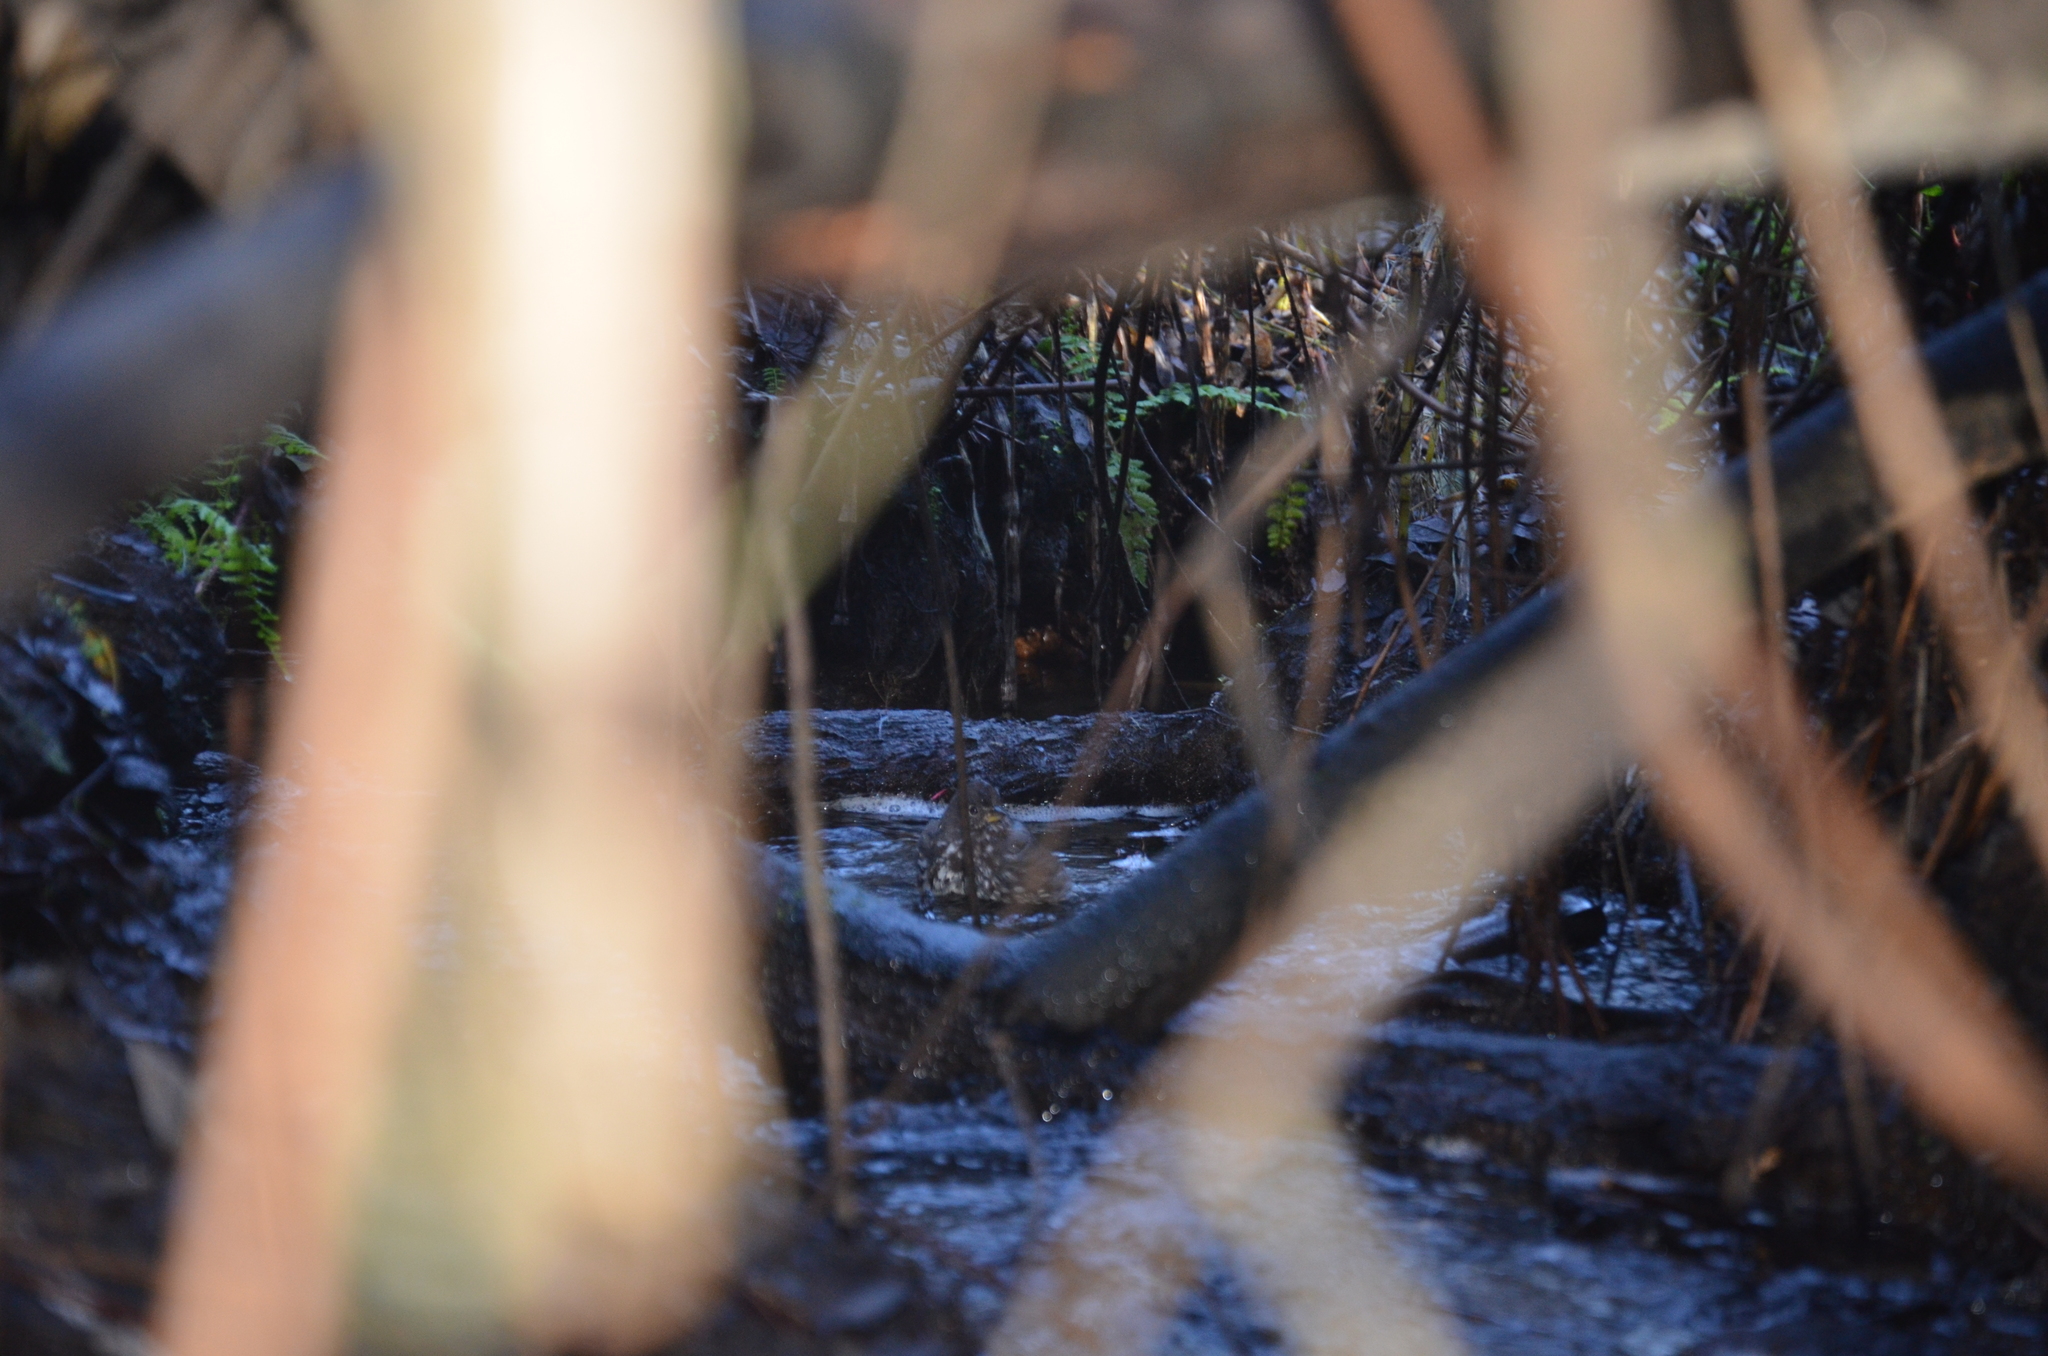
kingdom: Animalia
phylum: Chordata
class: Aves
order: Passeriformes
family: Passerellidae
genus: Passerella
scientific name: Passerella iliaca
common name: Fox sparrow
